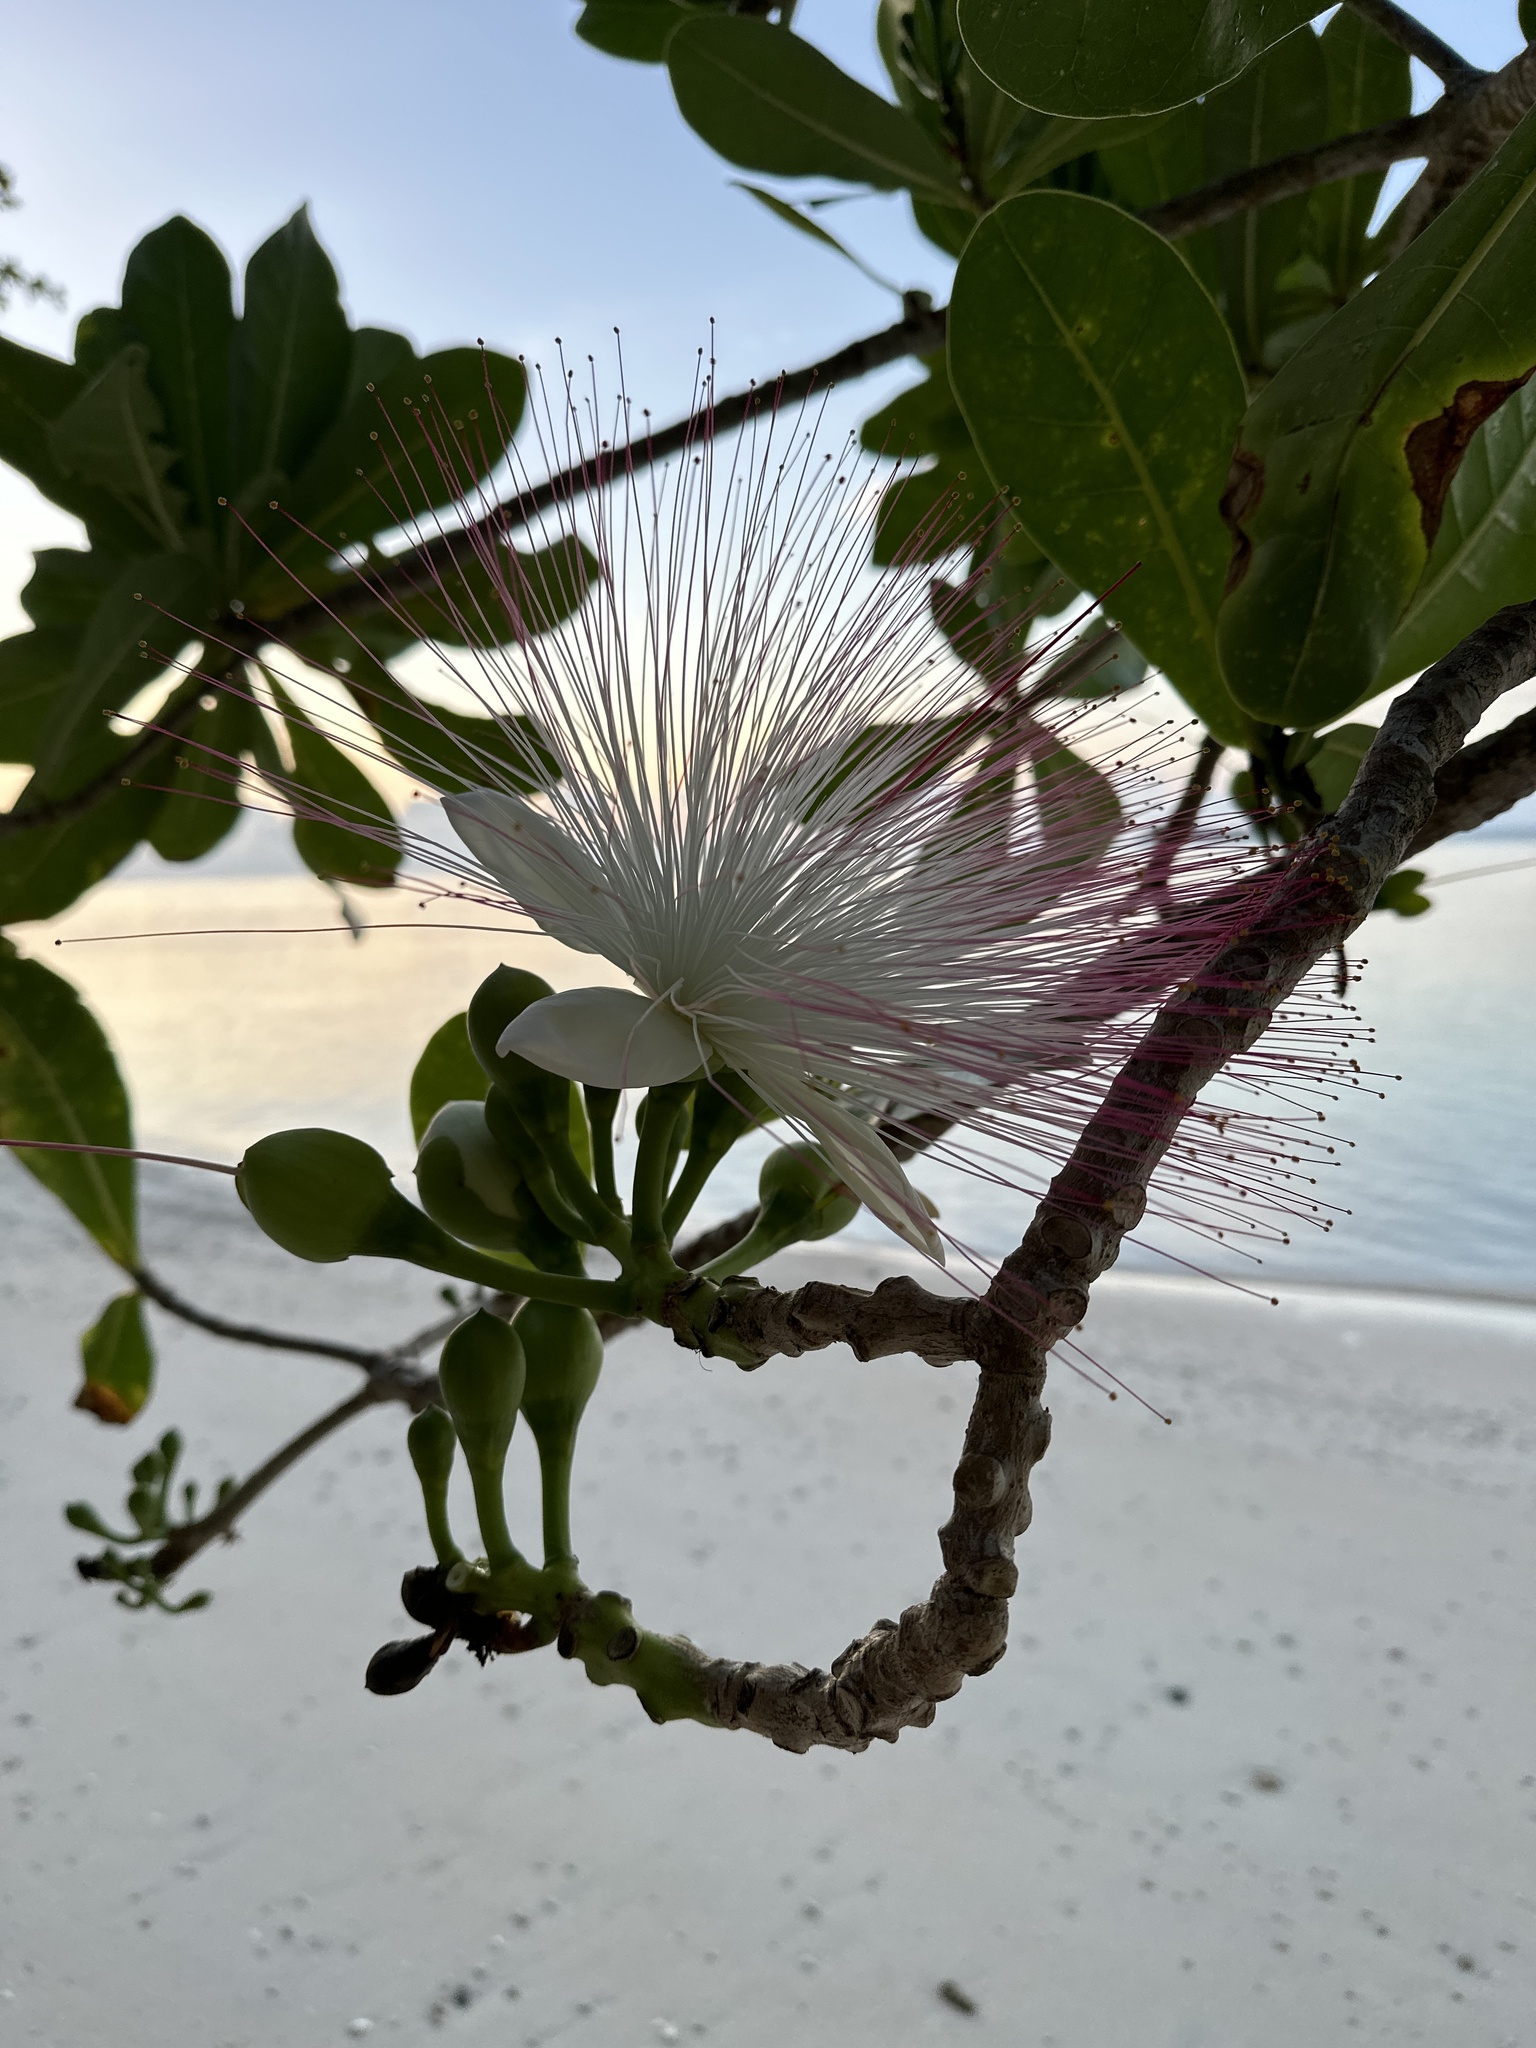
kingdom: Plantae
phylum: Tracheophyta
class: Magnoliopsida
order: Ericales
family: Lecythidaceae
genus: Barringtonia
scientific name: Barringtonia asiatica
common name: Mango-pine
